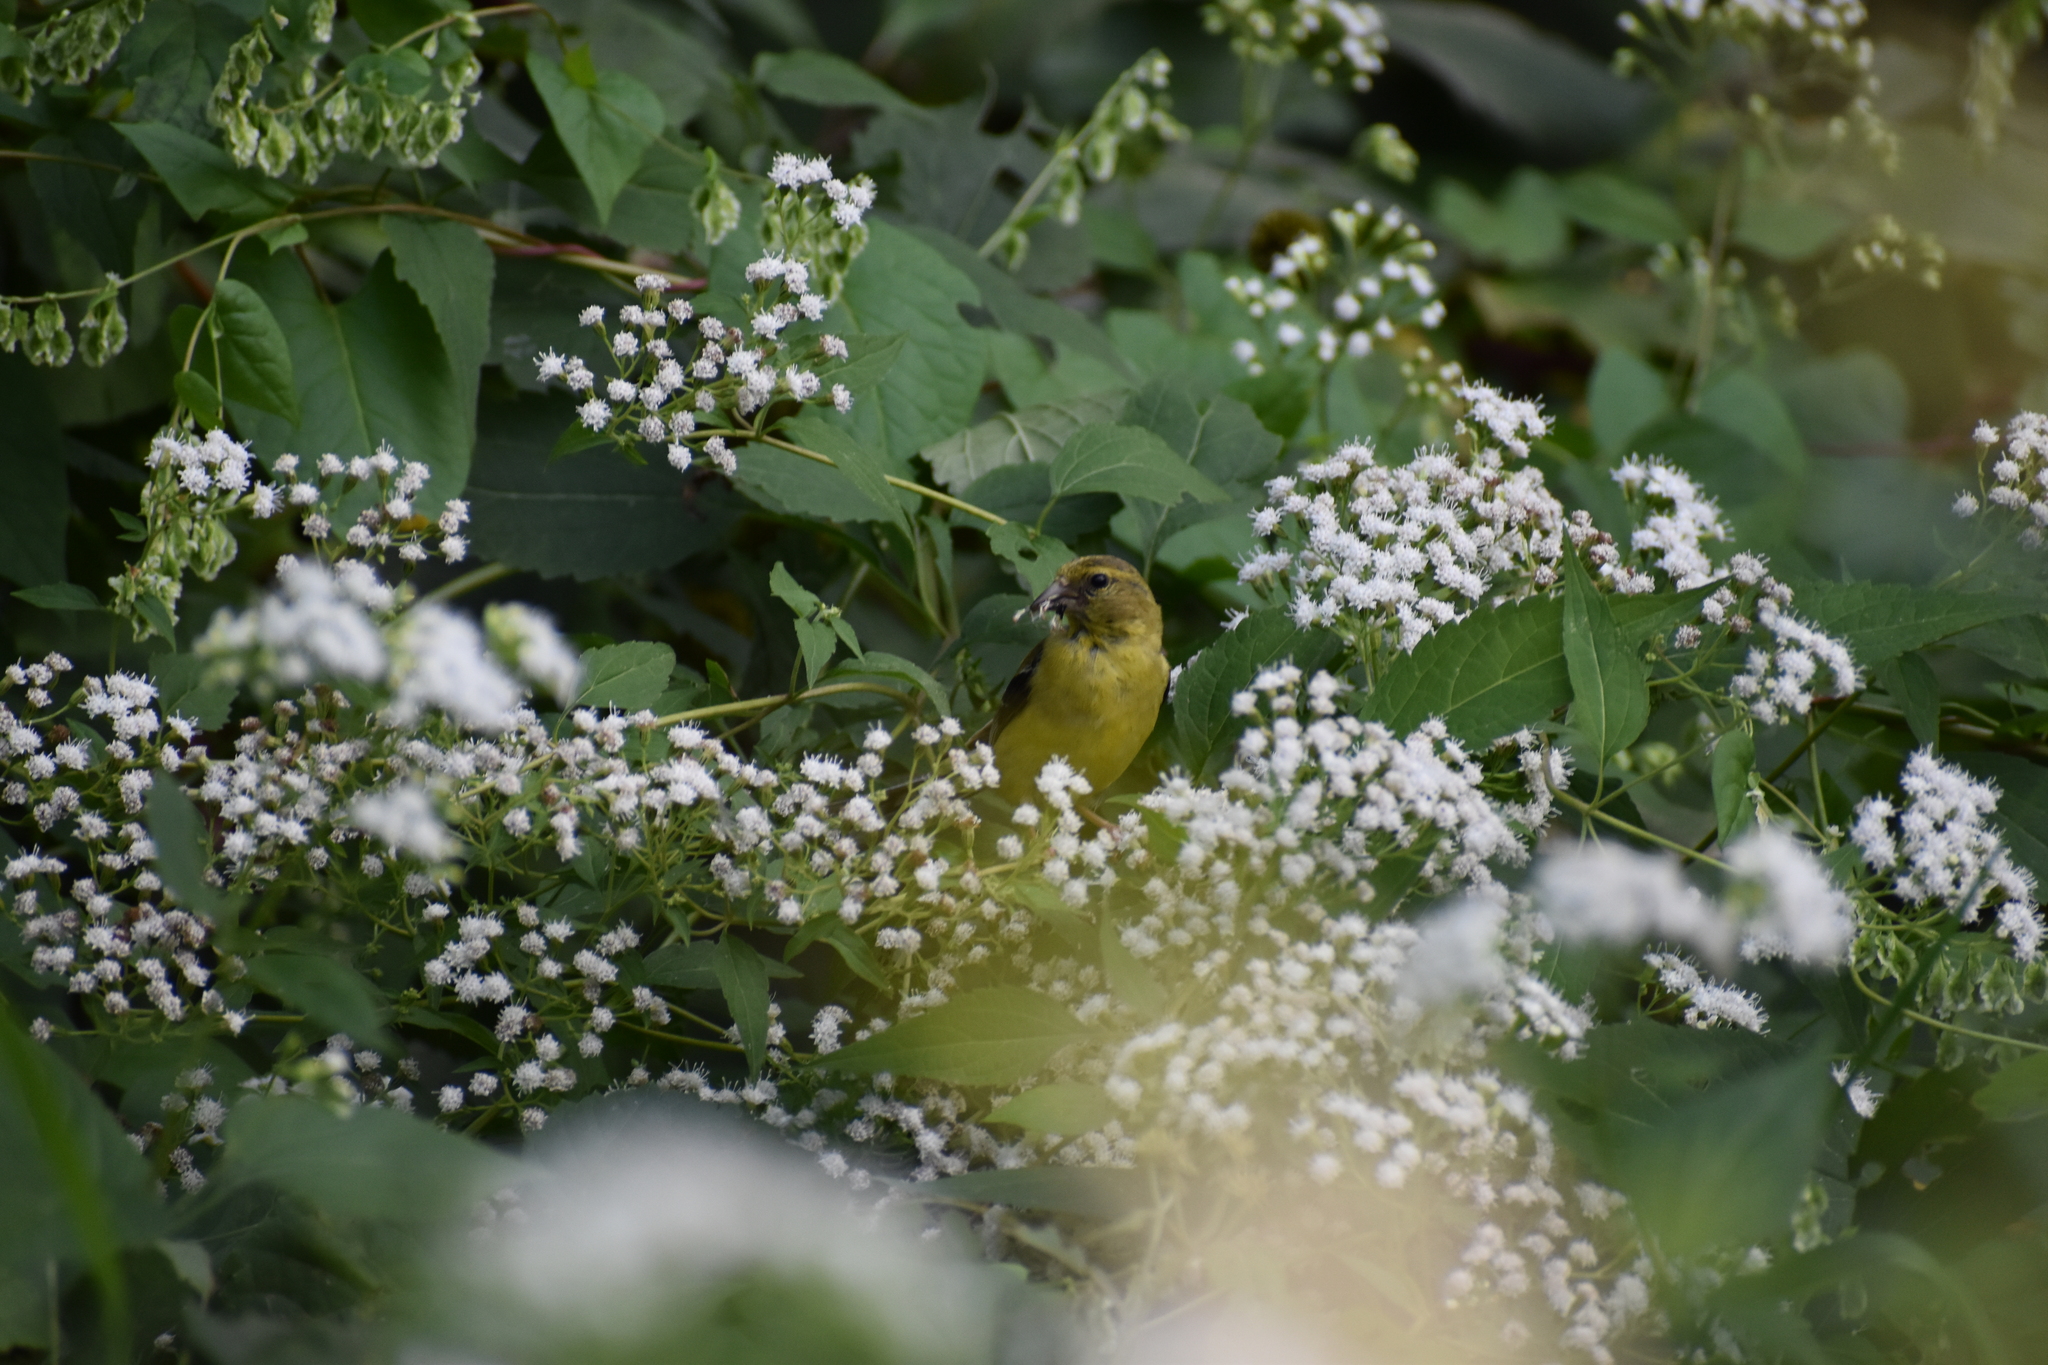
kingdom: Animalia
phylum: Chordata
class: Aves
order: Passeriformes
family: Fringillidae
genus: Spinus
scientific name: Spinus tristis
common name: American goldfinch
